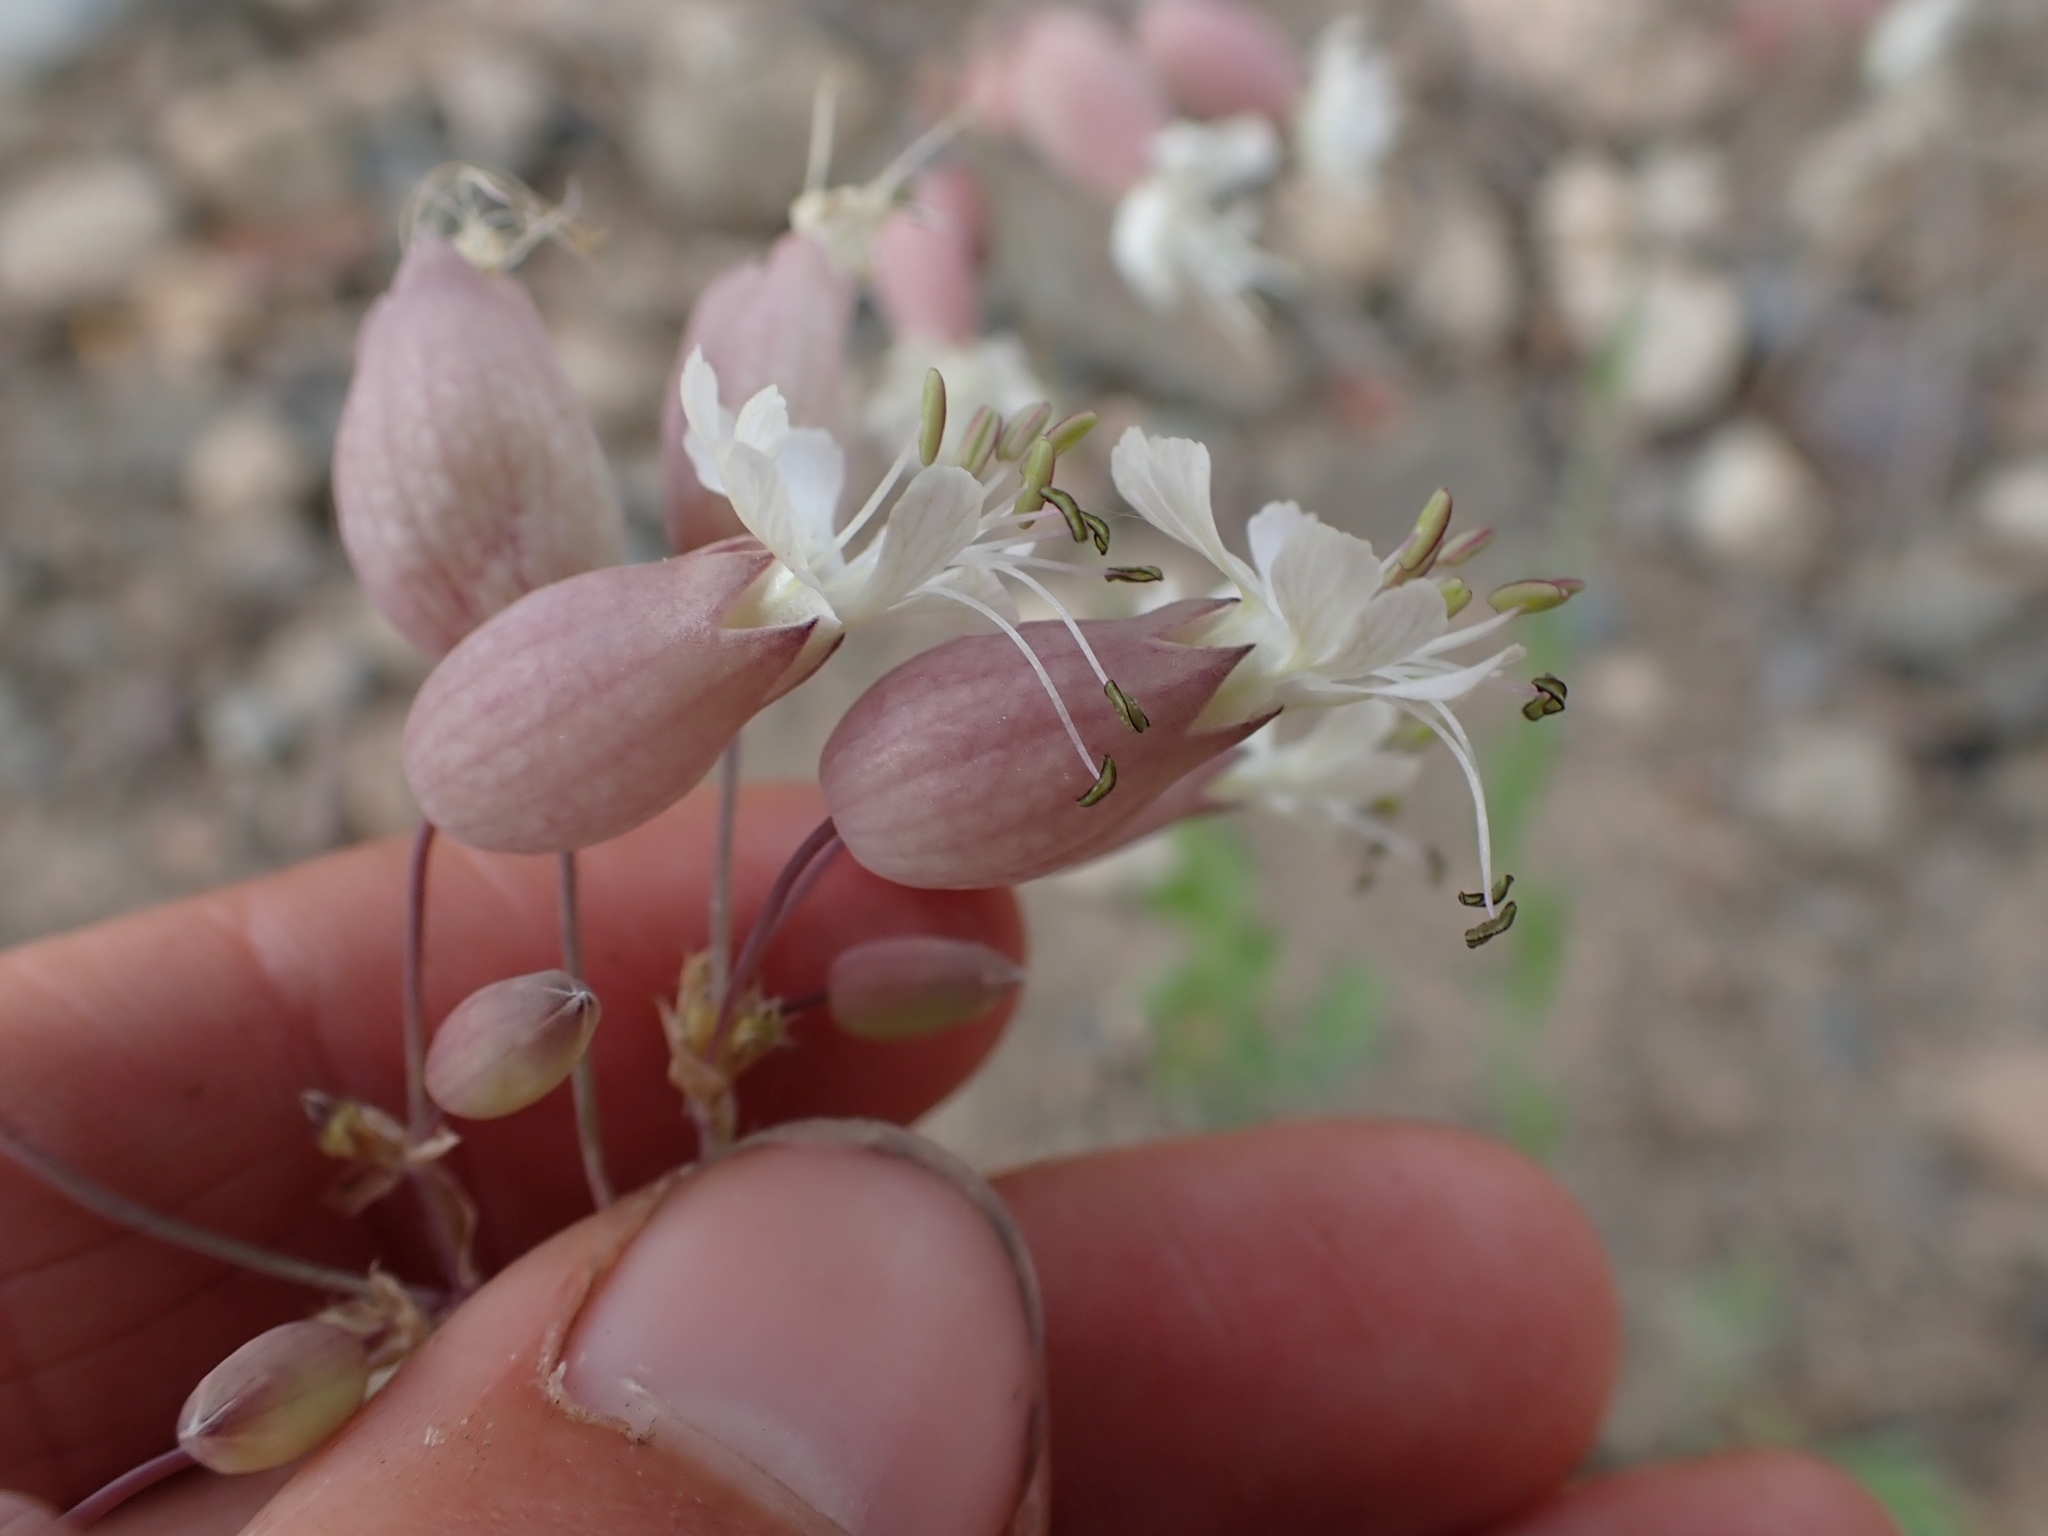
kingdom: Plantae
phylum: Tracheophyta
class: Magnoliopsida
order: Caryophyllales
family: Caryophyllaceae
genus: Silene
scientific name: Silene vulgaris
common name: Bladder campion
